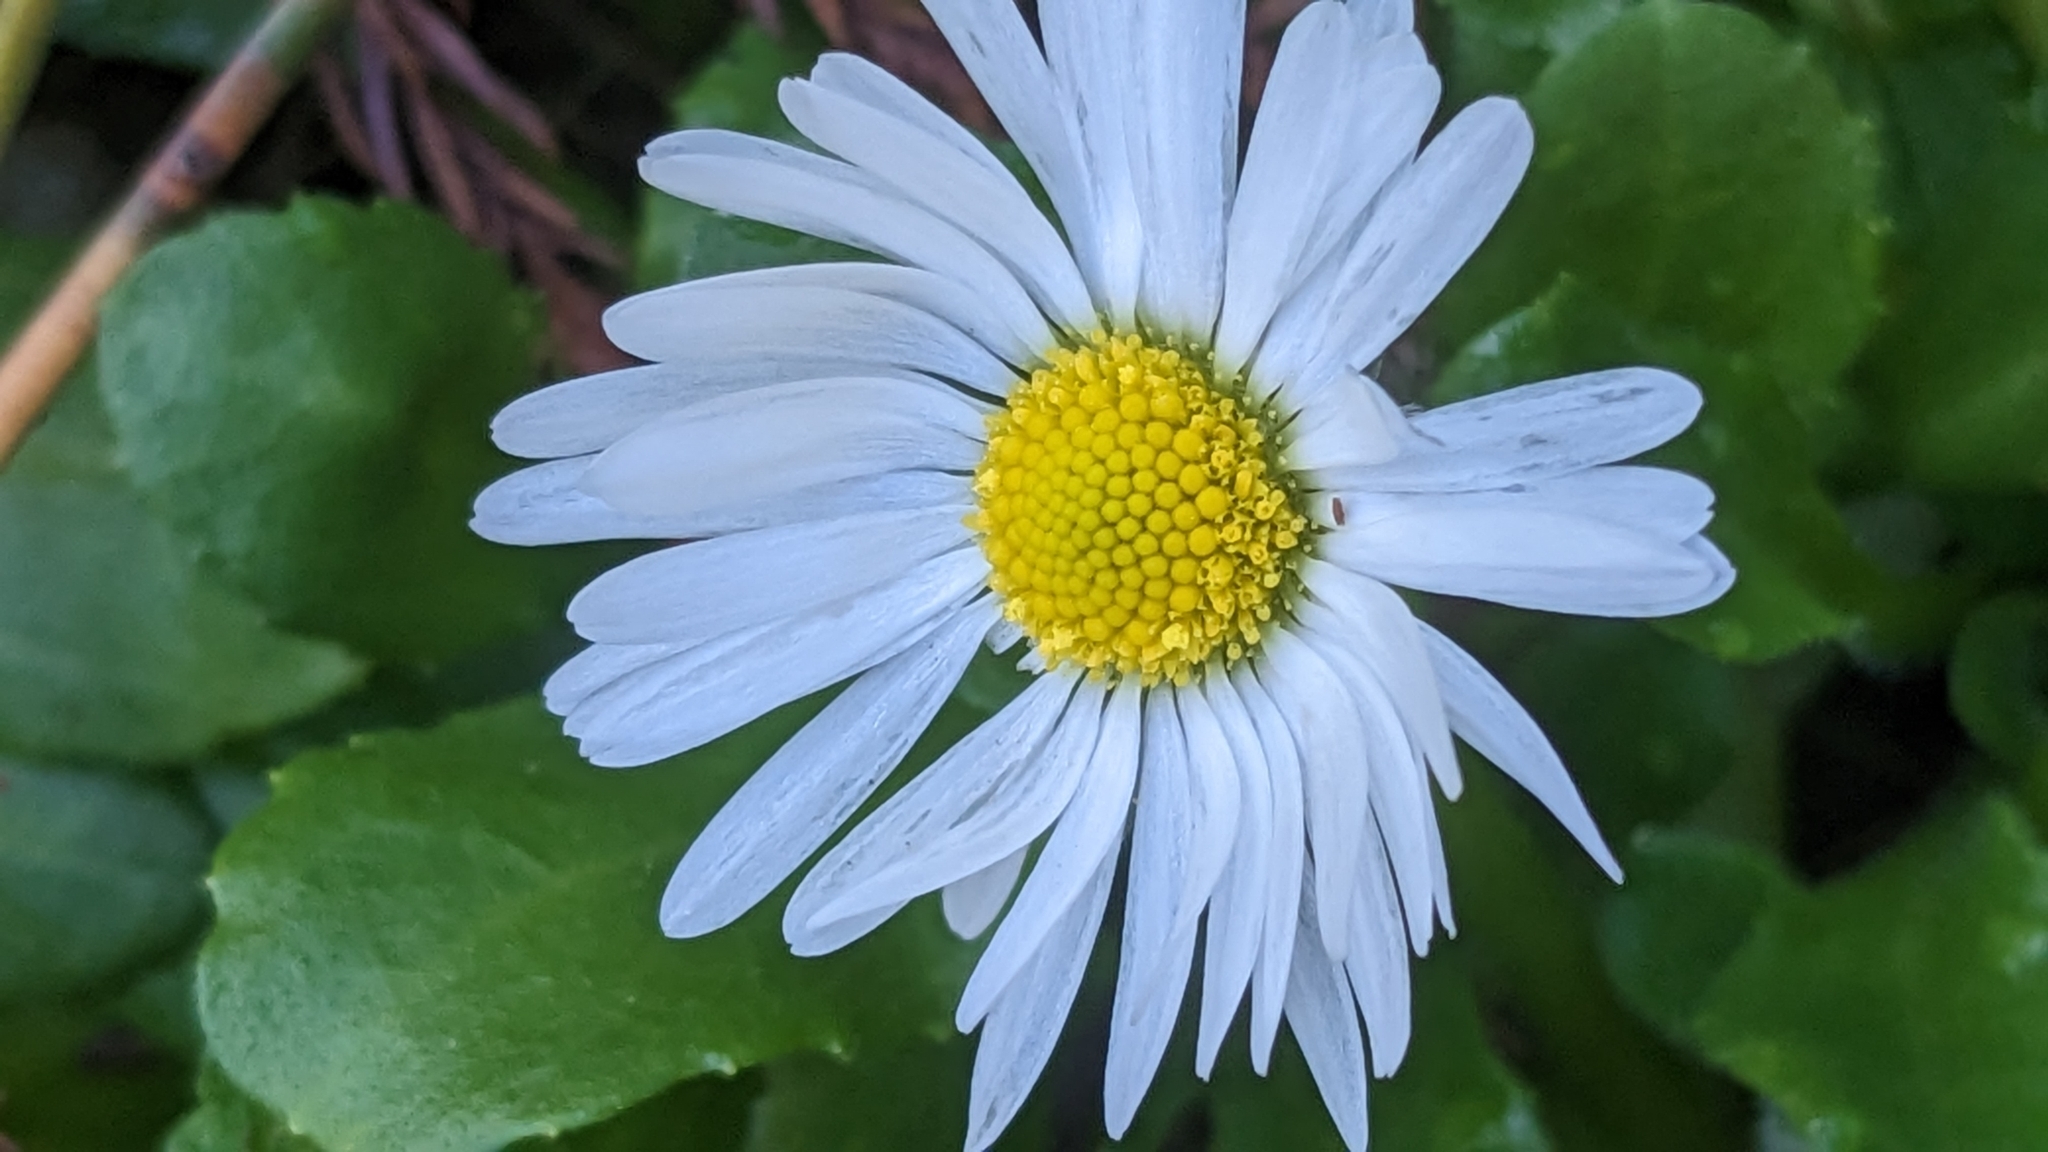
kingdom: Plantae
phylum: Tracheophyta
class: Magnoliopsida
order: Asterales
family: Asteraceae
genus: Bellis
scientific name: Bellis perennis
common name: Lawndaisy
